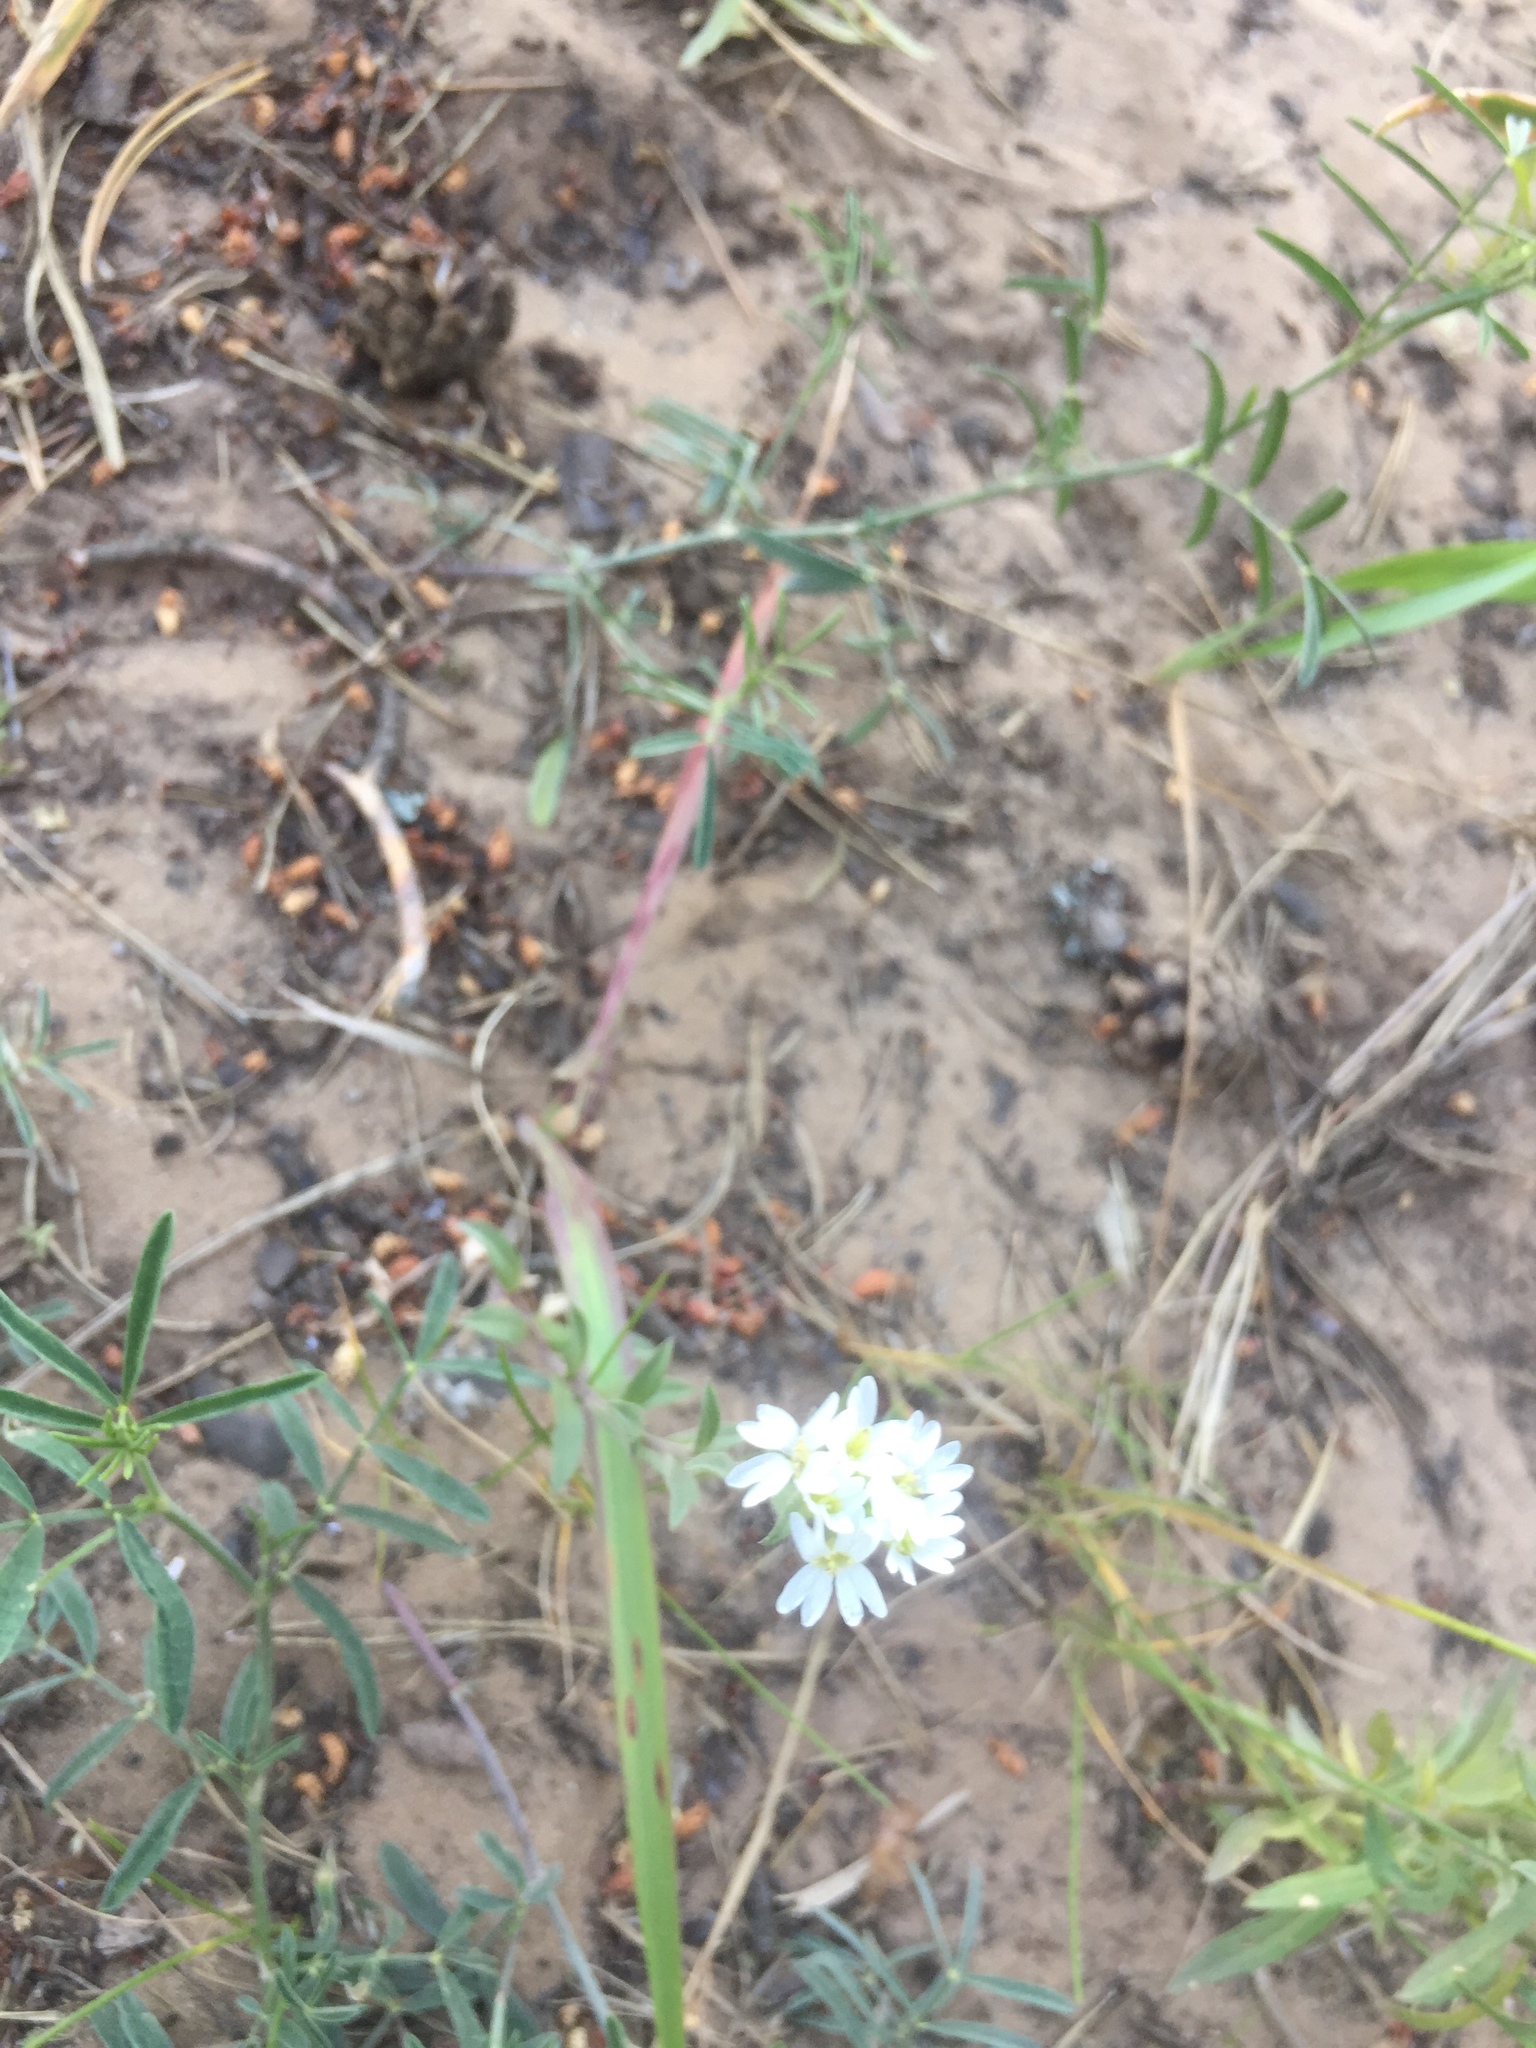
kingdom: Plantae
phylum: Tracheophyta
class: Magnoliopsida
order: Brassicales
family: Brassicaceae
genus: Berteroa
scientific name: Berteroa incana
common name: Hoary alison
